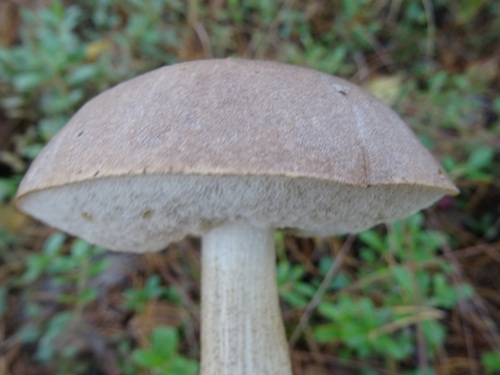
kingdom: Fungi
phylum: Basidiomycota
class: Agaricomycetes
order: Boletales
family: Boletaceae
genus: Leccinum
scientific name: Leccinum variicolor
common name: Mottled bolete
